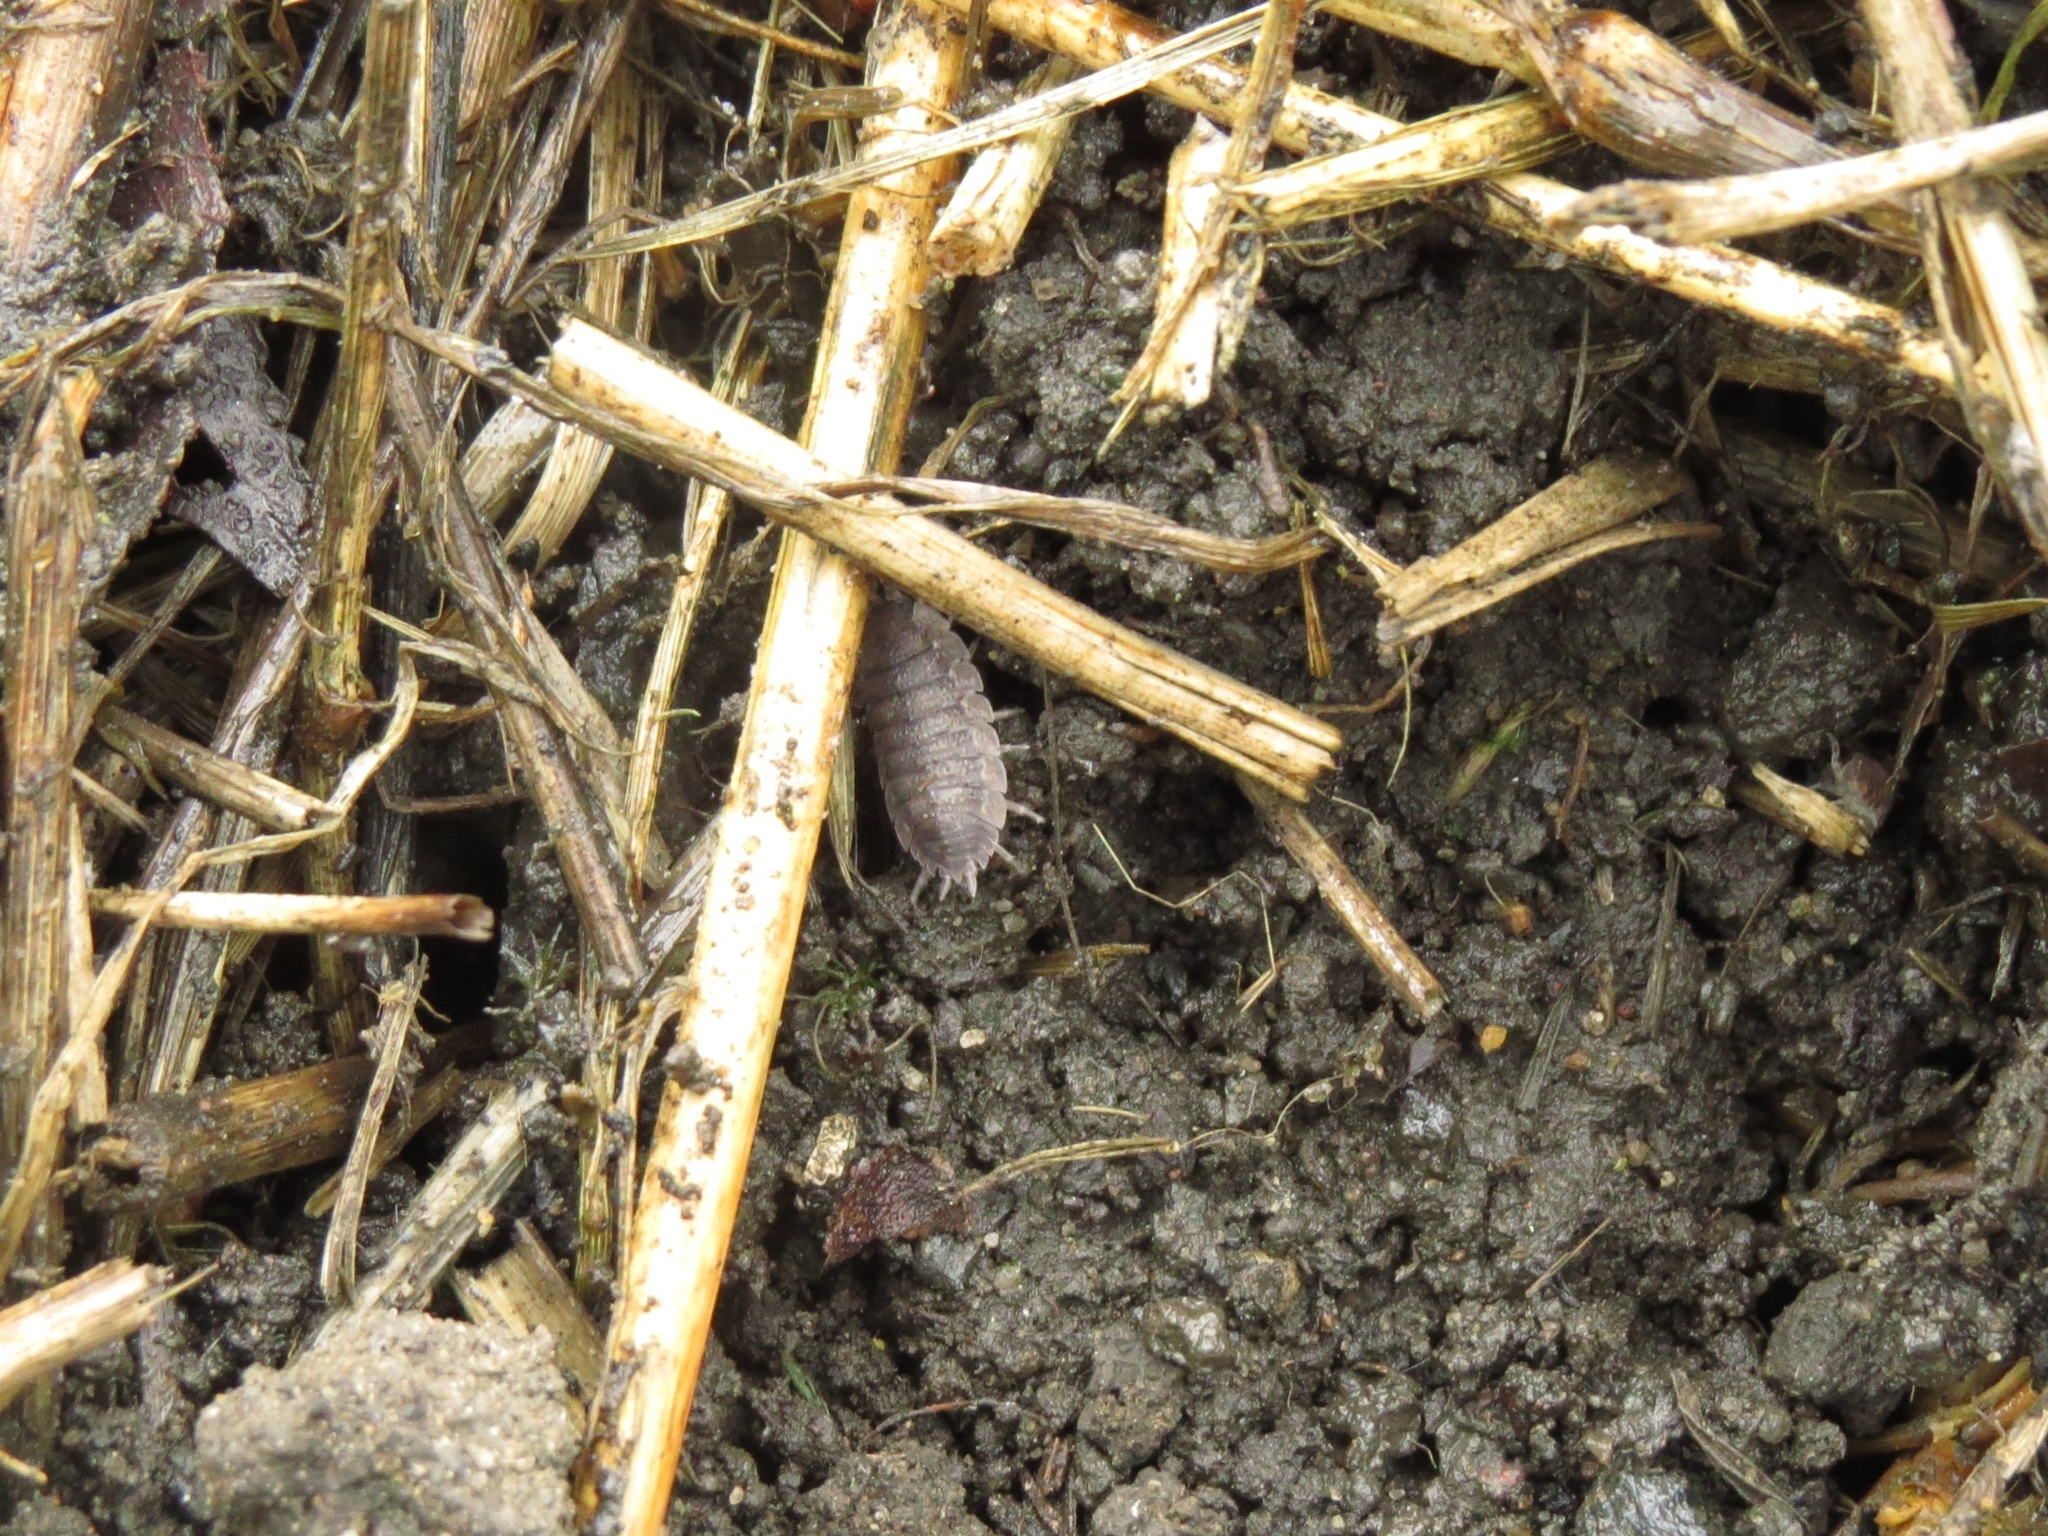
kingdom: Animalia
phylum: Arthropoda
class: Malacostraca
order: Isopoda
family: Porcellionidae
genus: Porcellio
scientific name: Porcellio scaber
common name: Common rough woodlouse
